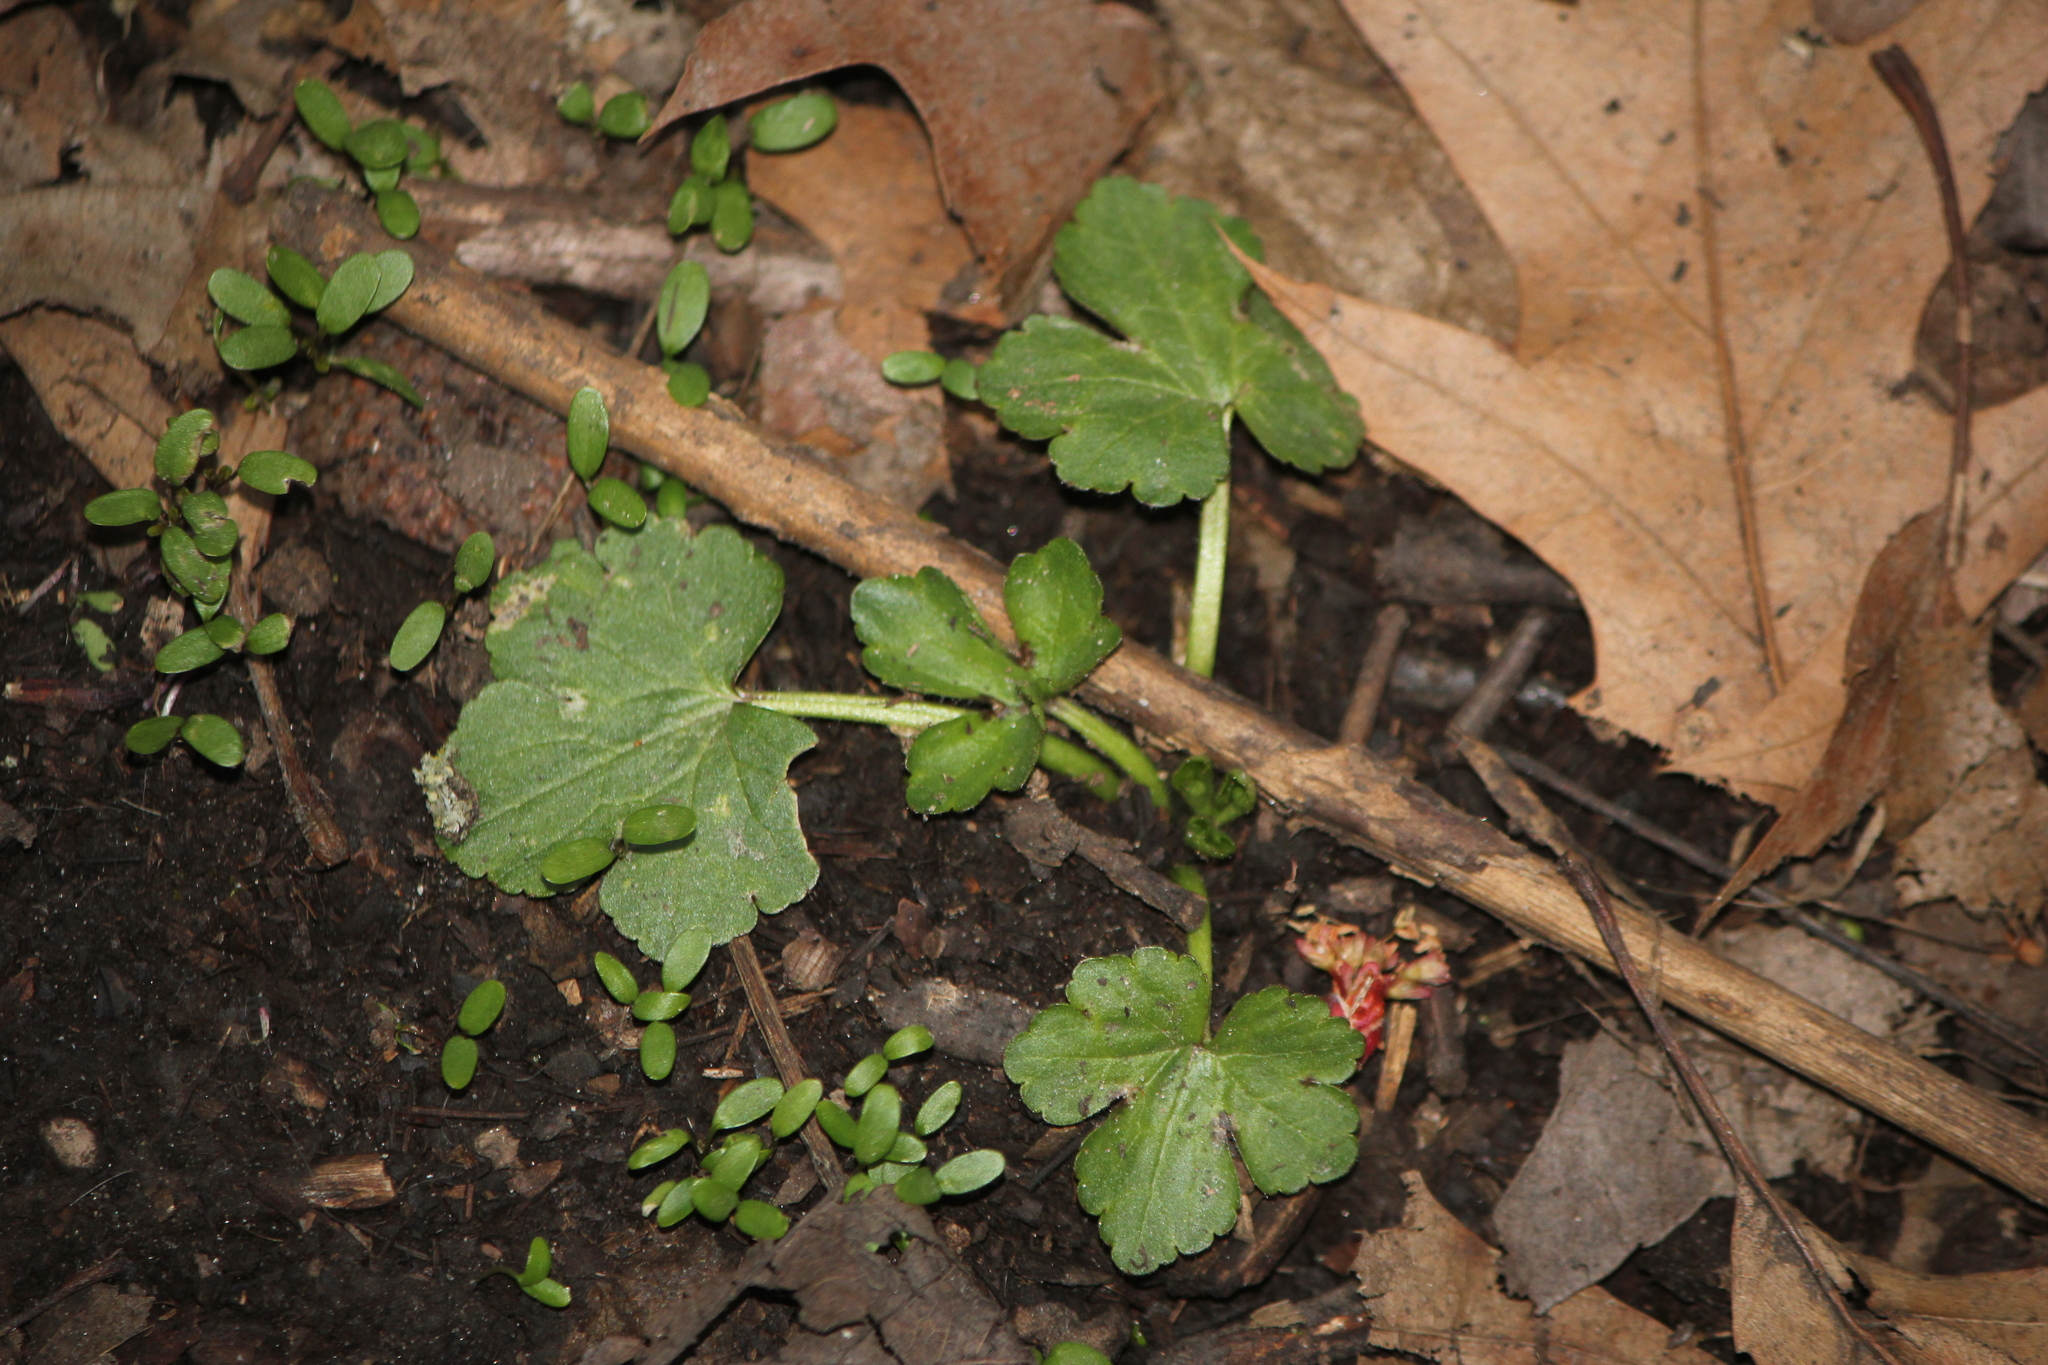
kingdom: Plantae
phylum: Tracheophyta
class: Magnoliopsida
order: Ranunculales
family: Ranunculaceae
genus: Ranunculus
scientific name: Ranunculus recurvatus
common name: Blisterwort
